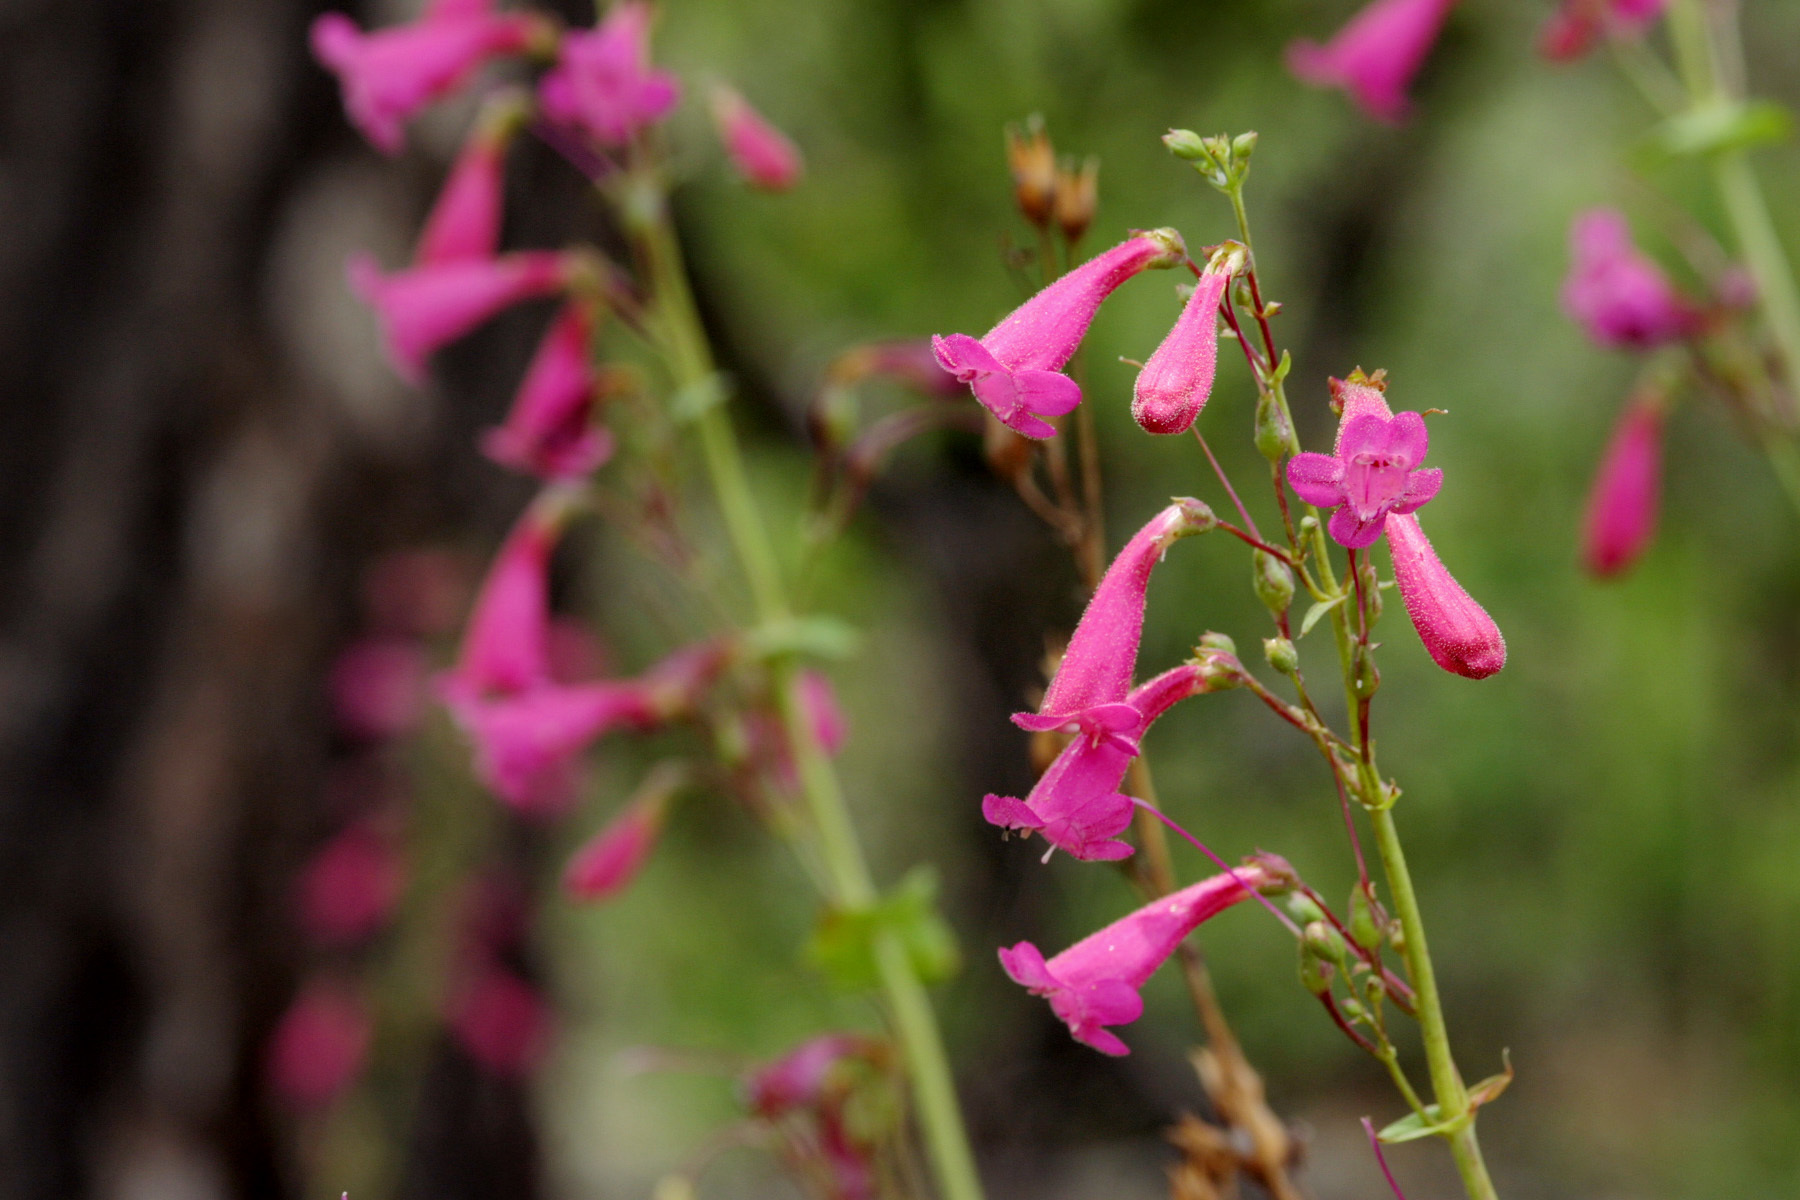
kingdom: Plantae
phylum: Tracheophyta
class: Magnoliopsida
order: Lamiales
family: Plantaginaceae
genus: Penstemon
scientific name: Penstemon pseudospectabilis
